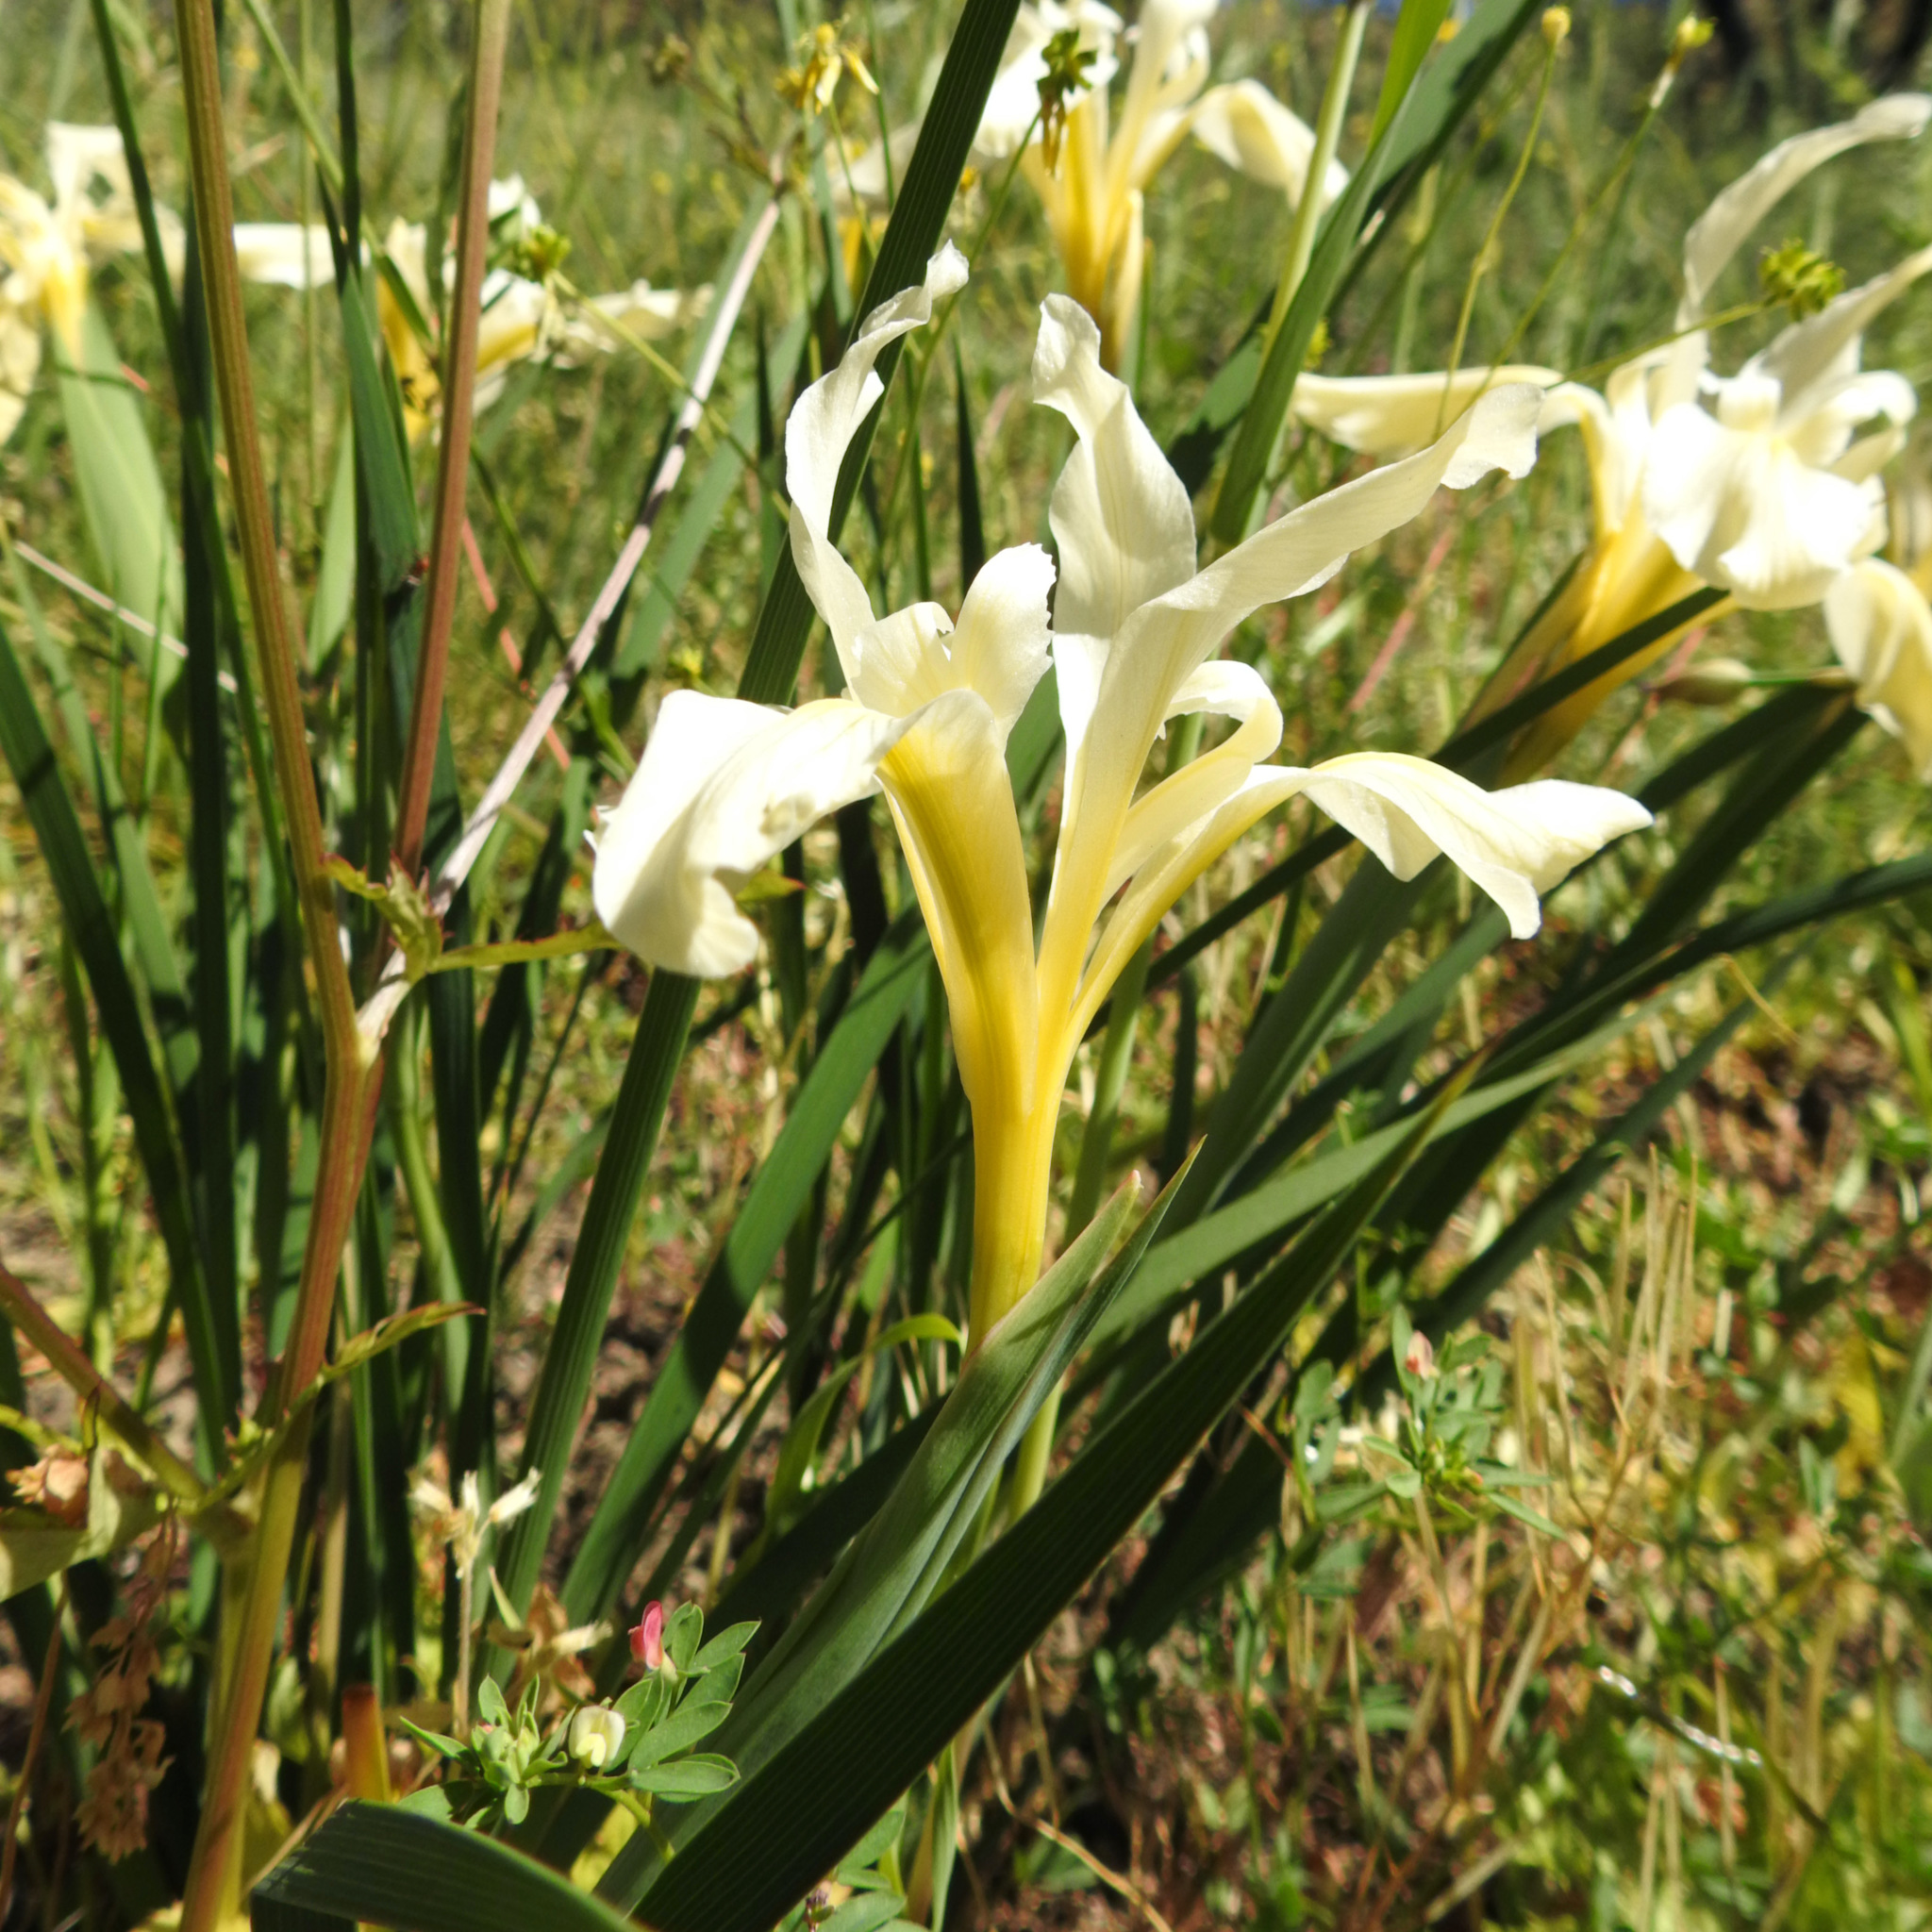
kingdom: Plantae
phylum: Tracheophyta
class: Liliopsida
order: Asparagales
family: Iridaceae
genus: Iris
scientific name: Iris fernaldii
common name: Fernald's iris
